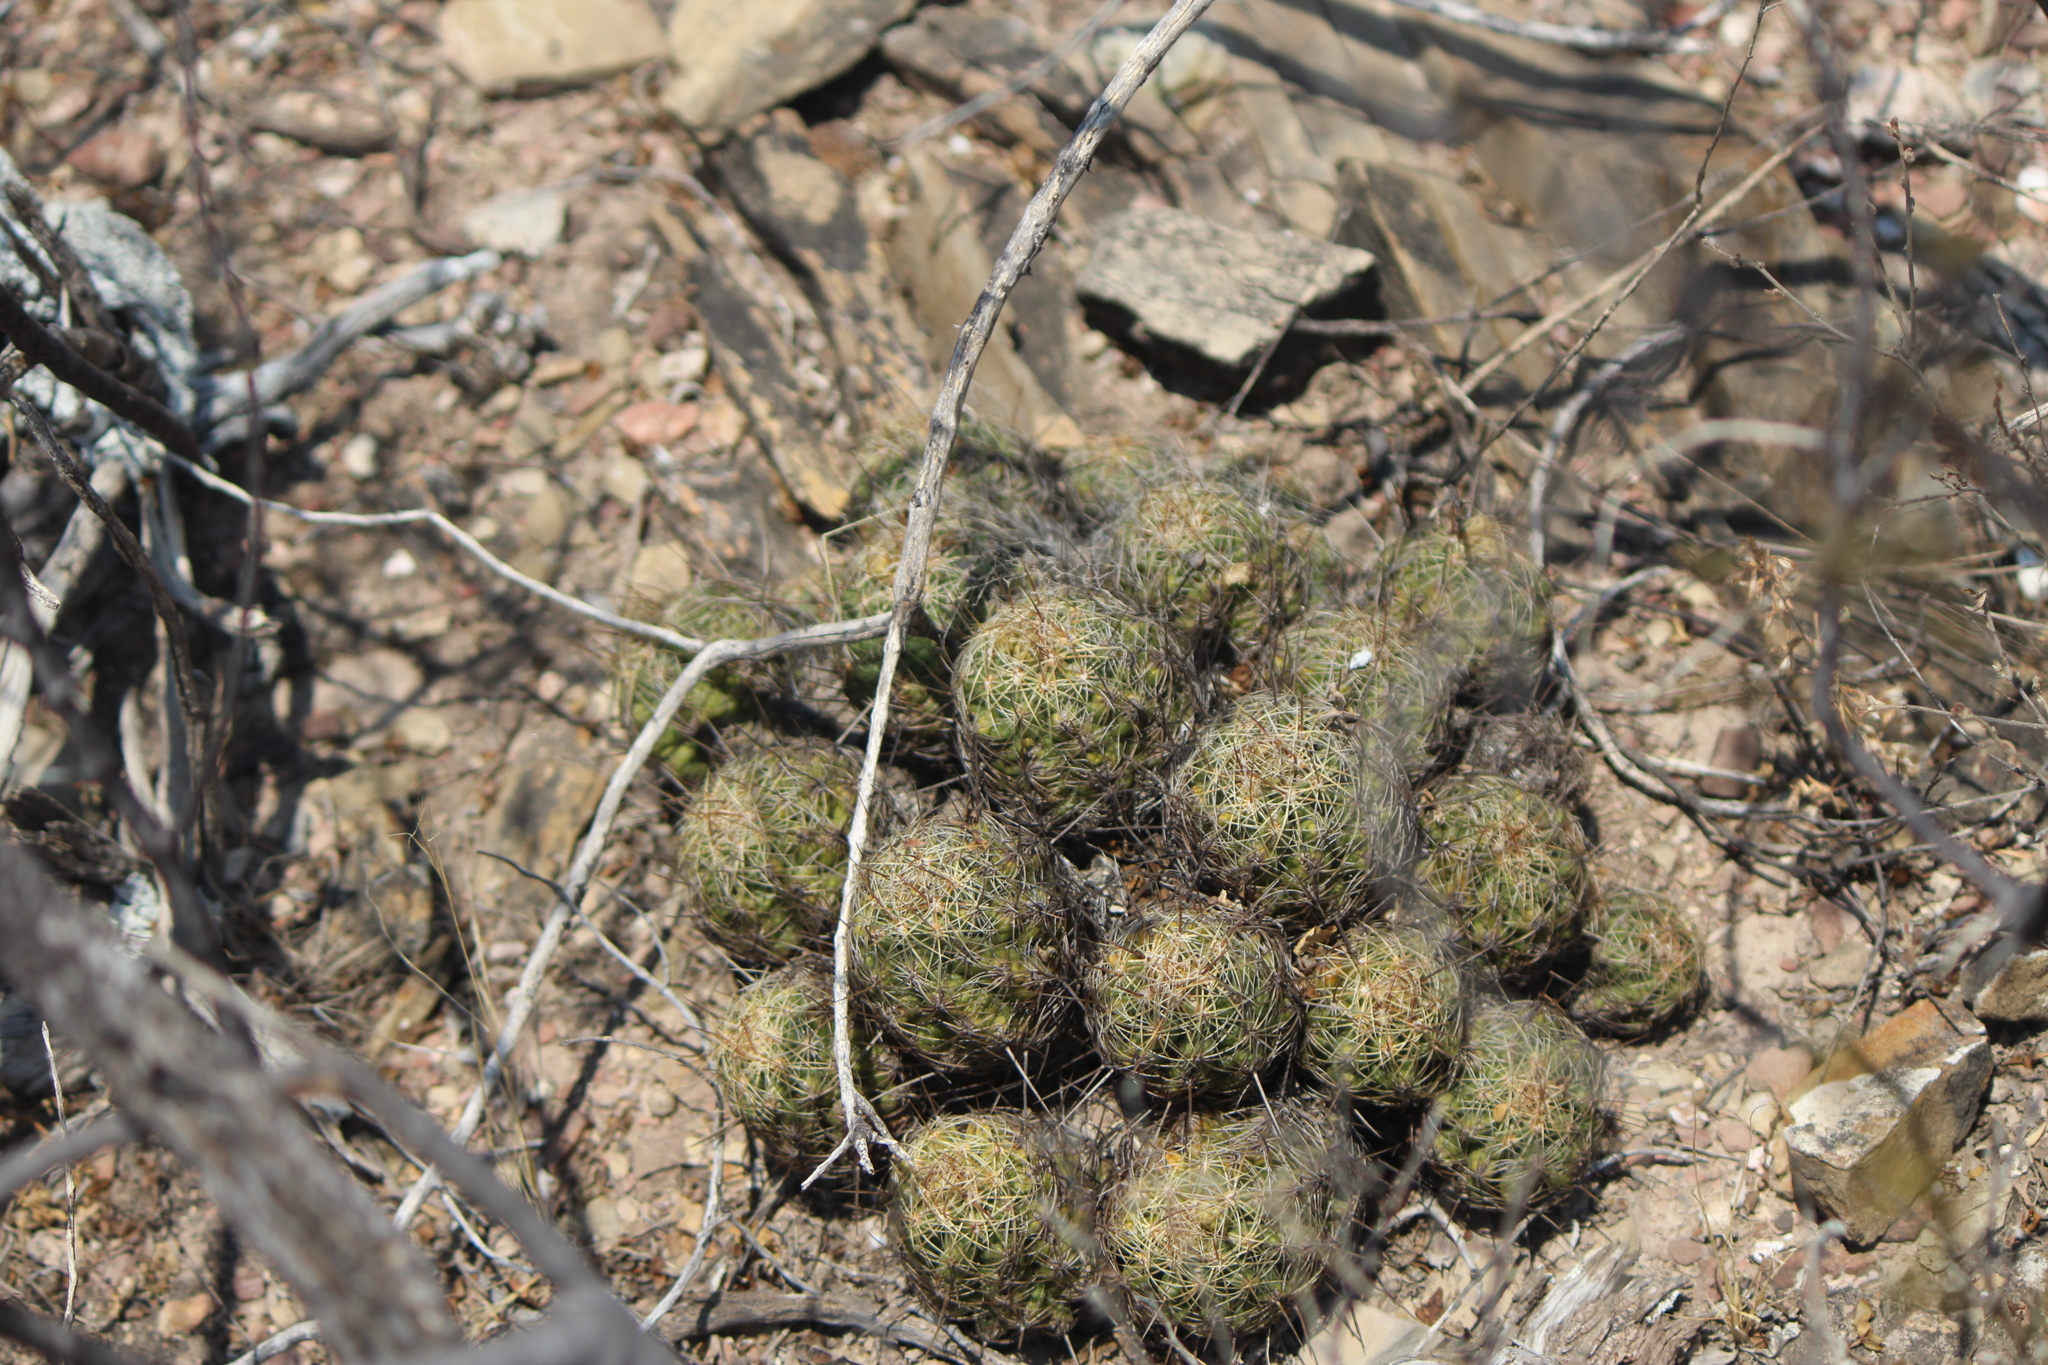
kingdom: Plantae
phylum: Tracheophyta
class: Magnoliopsida
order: Caryophyllales
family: Cactaceae
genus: Thelocactus
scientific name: Thelocactus leucacanthus
